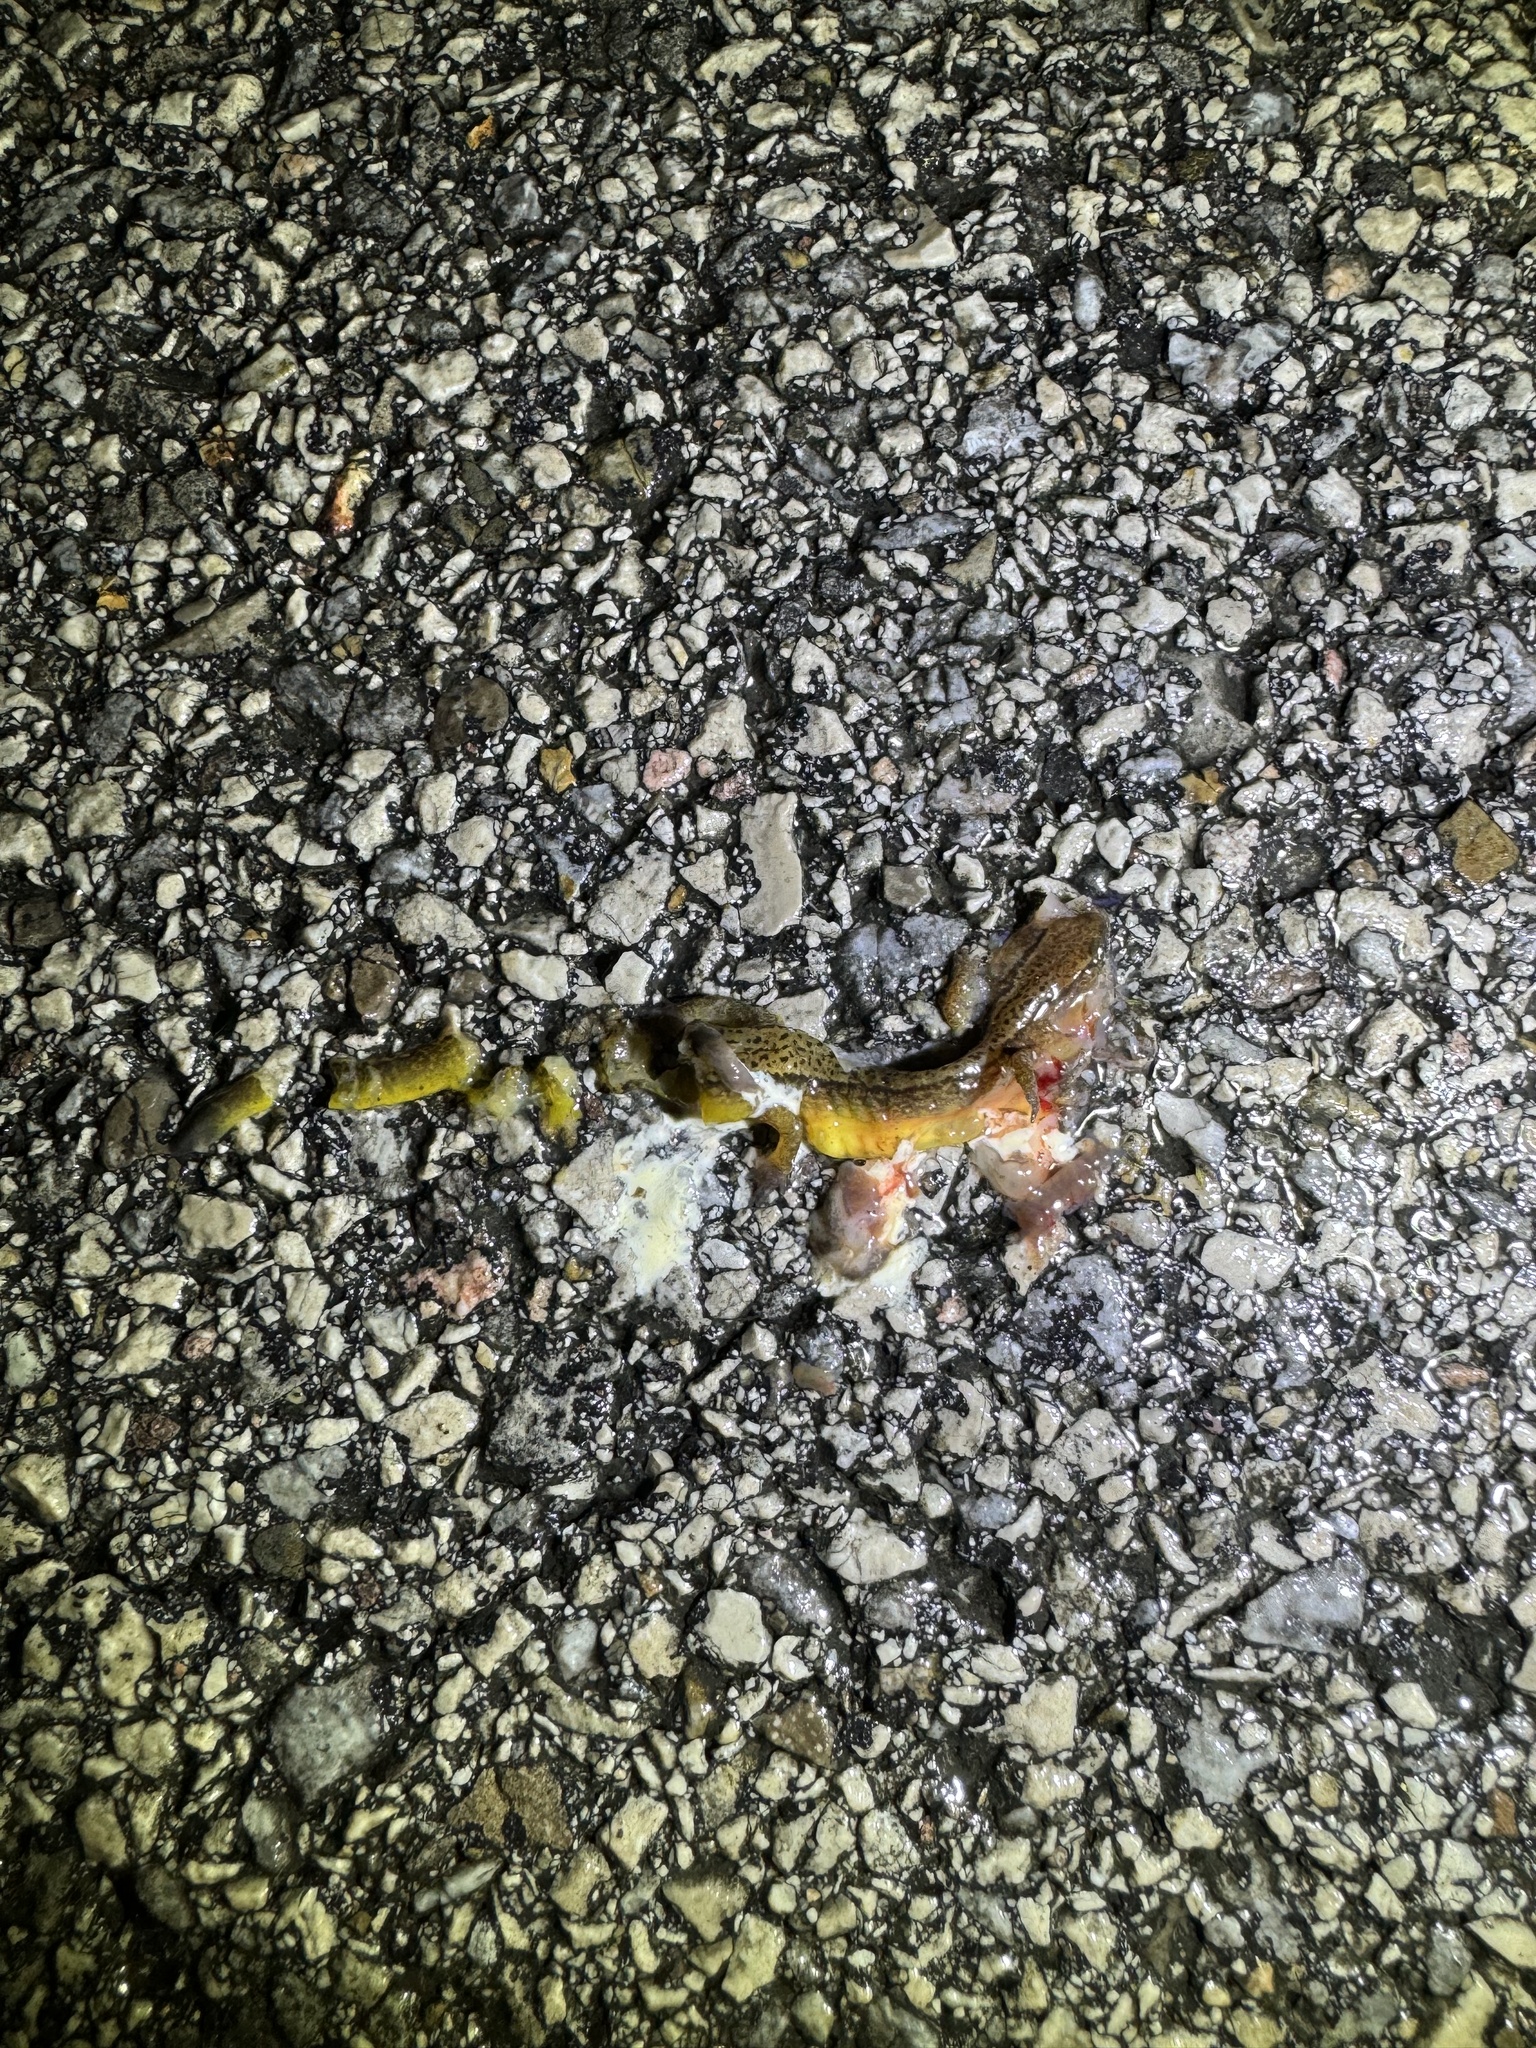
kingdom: Animalia
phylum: Chordata
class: Amphibia
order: Caudata
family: Plethodontidae
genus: Eurycea
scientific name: Eurycea cirrigera
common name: Southern two-lined salamander
